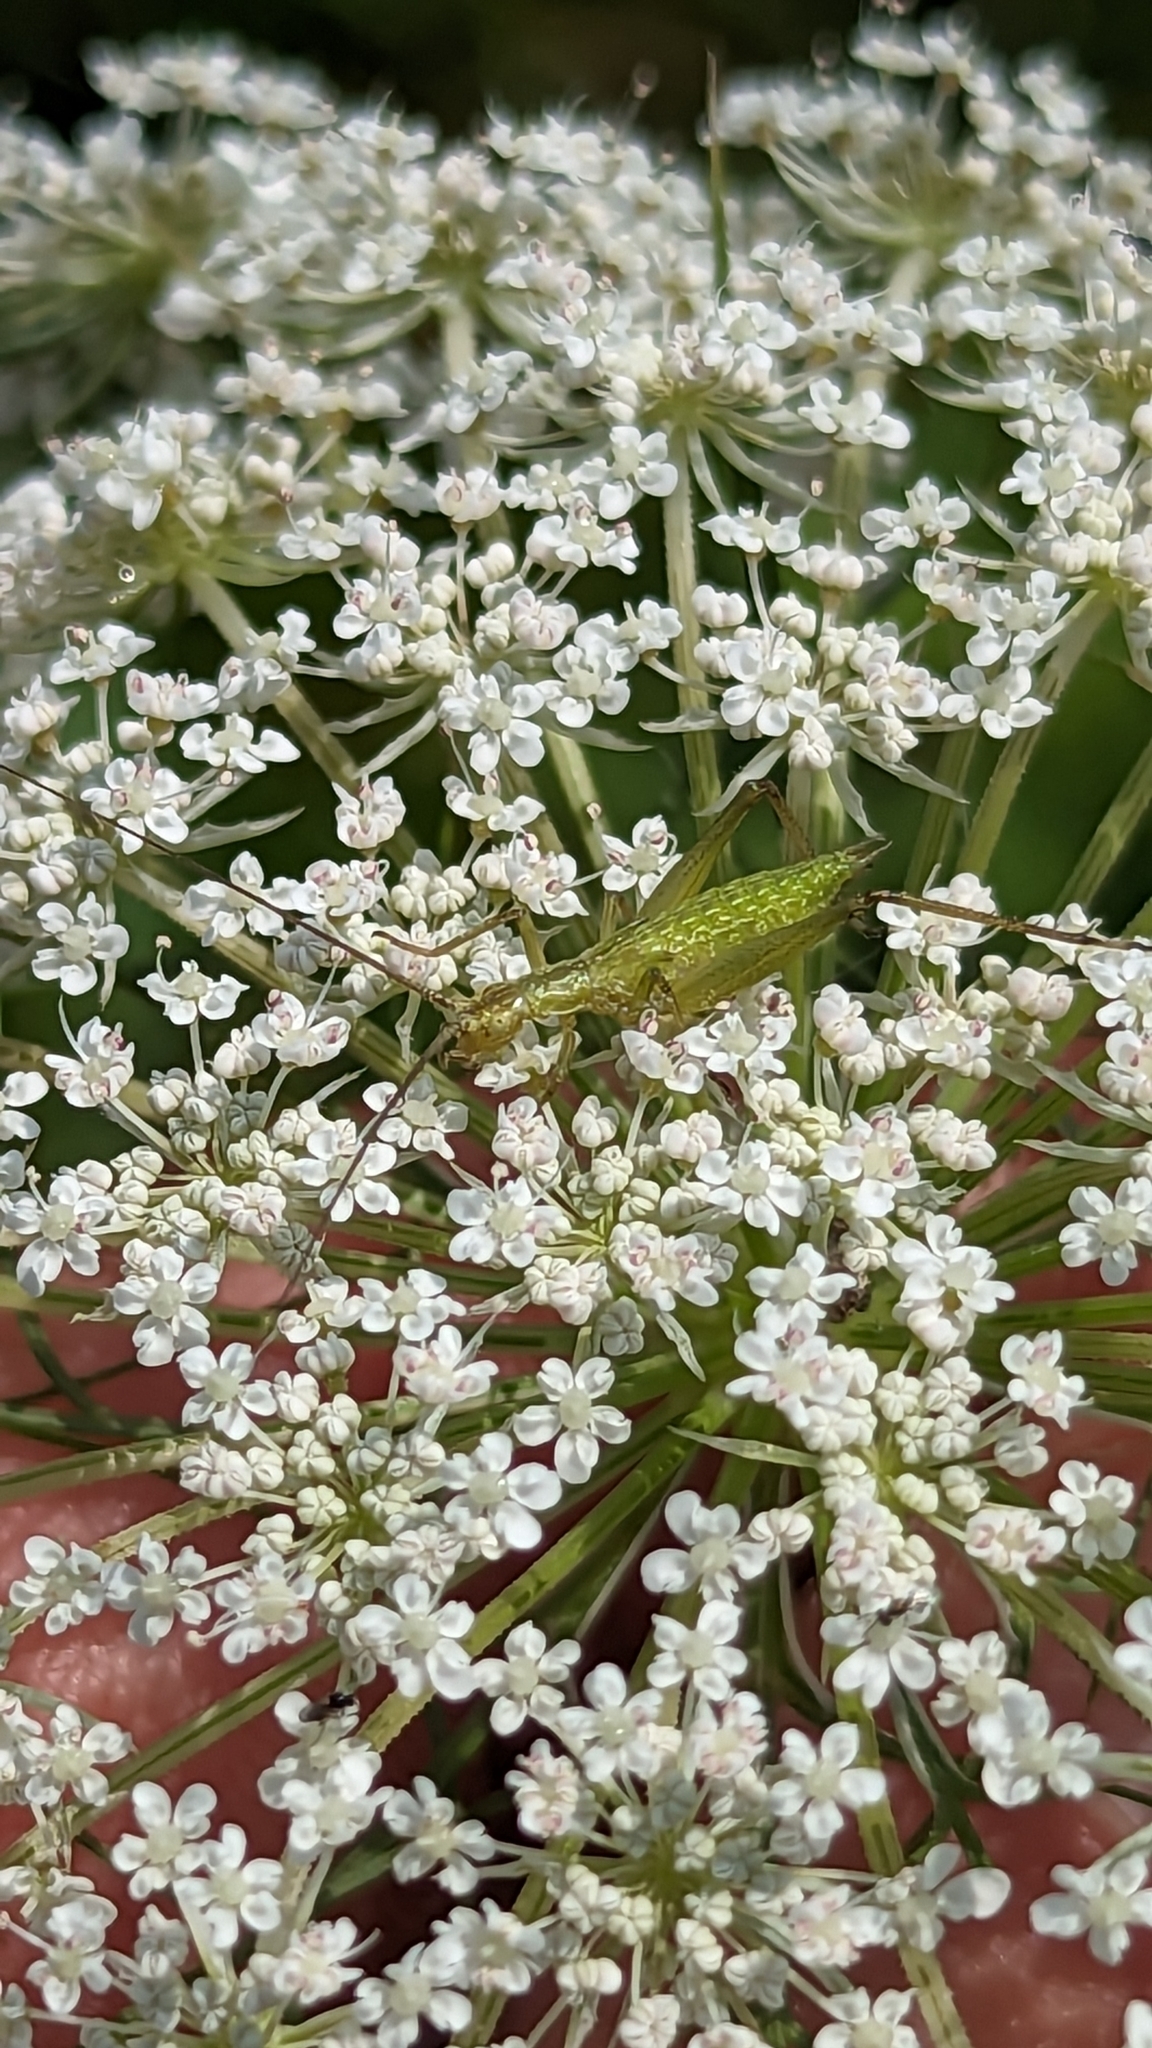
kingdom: Animalia
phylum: Arthropoda
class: Insecta
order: Orthoptera
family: Gryllidae
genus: Oecanthus
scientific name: Oecanthus
